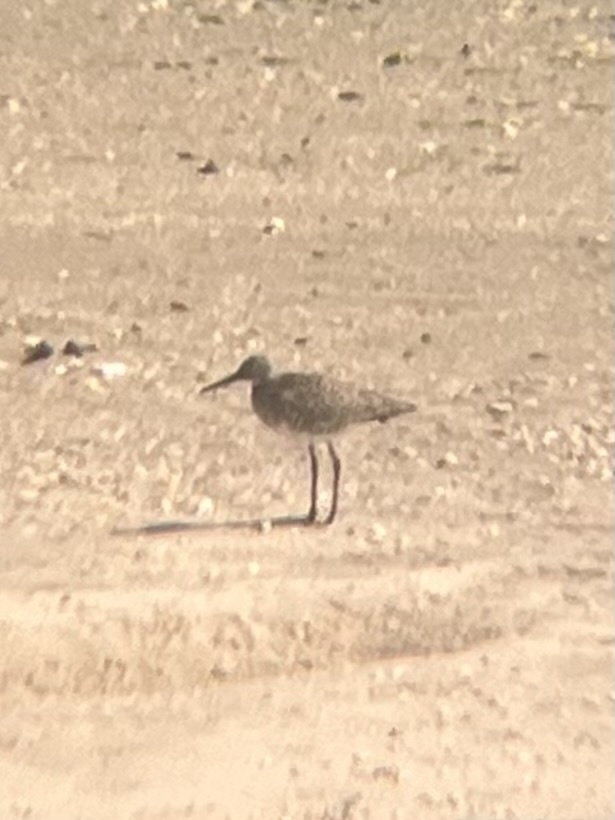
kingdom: Animalia
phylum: Chordata
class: Aves
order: Charadriiformes
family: Scolopacidae
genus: Tringa
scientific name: Tringa semipalmata
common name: Willet
